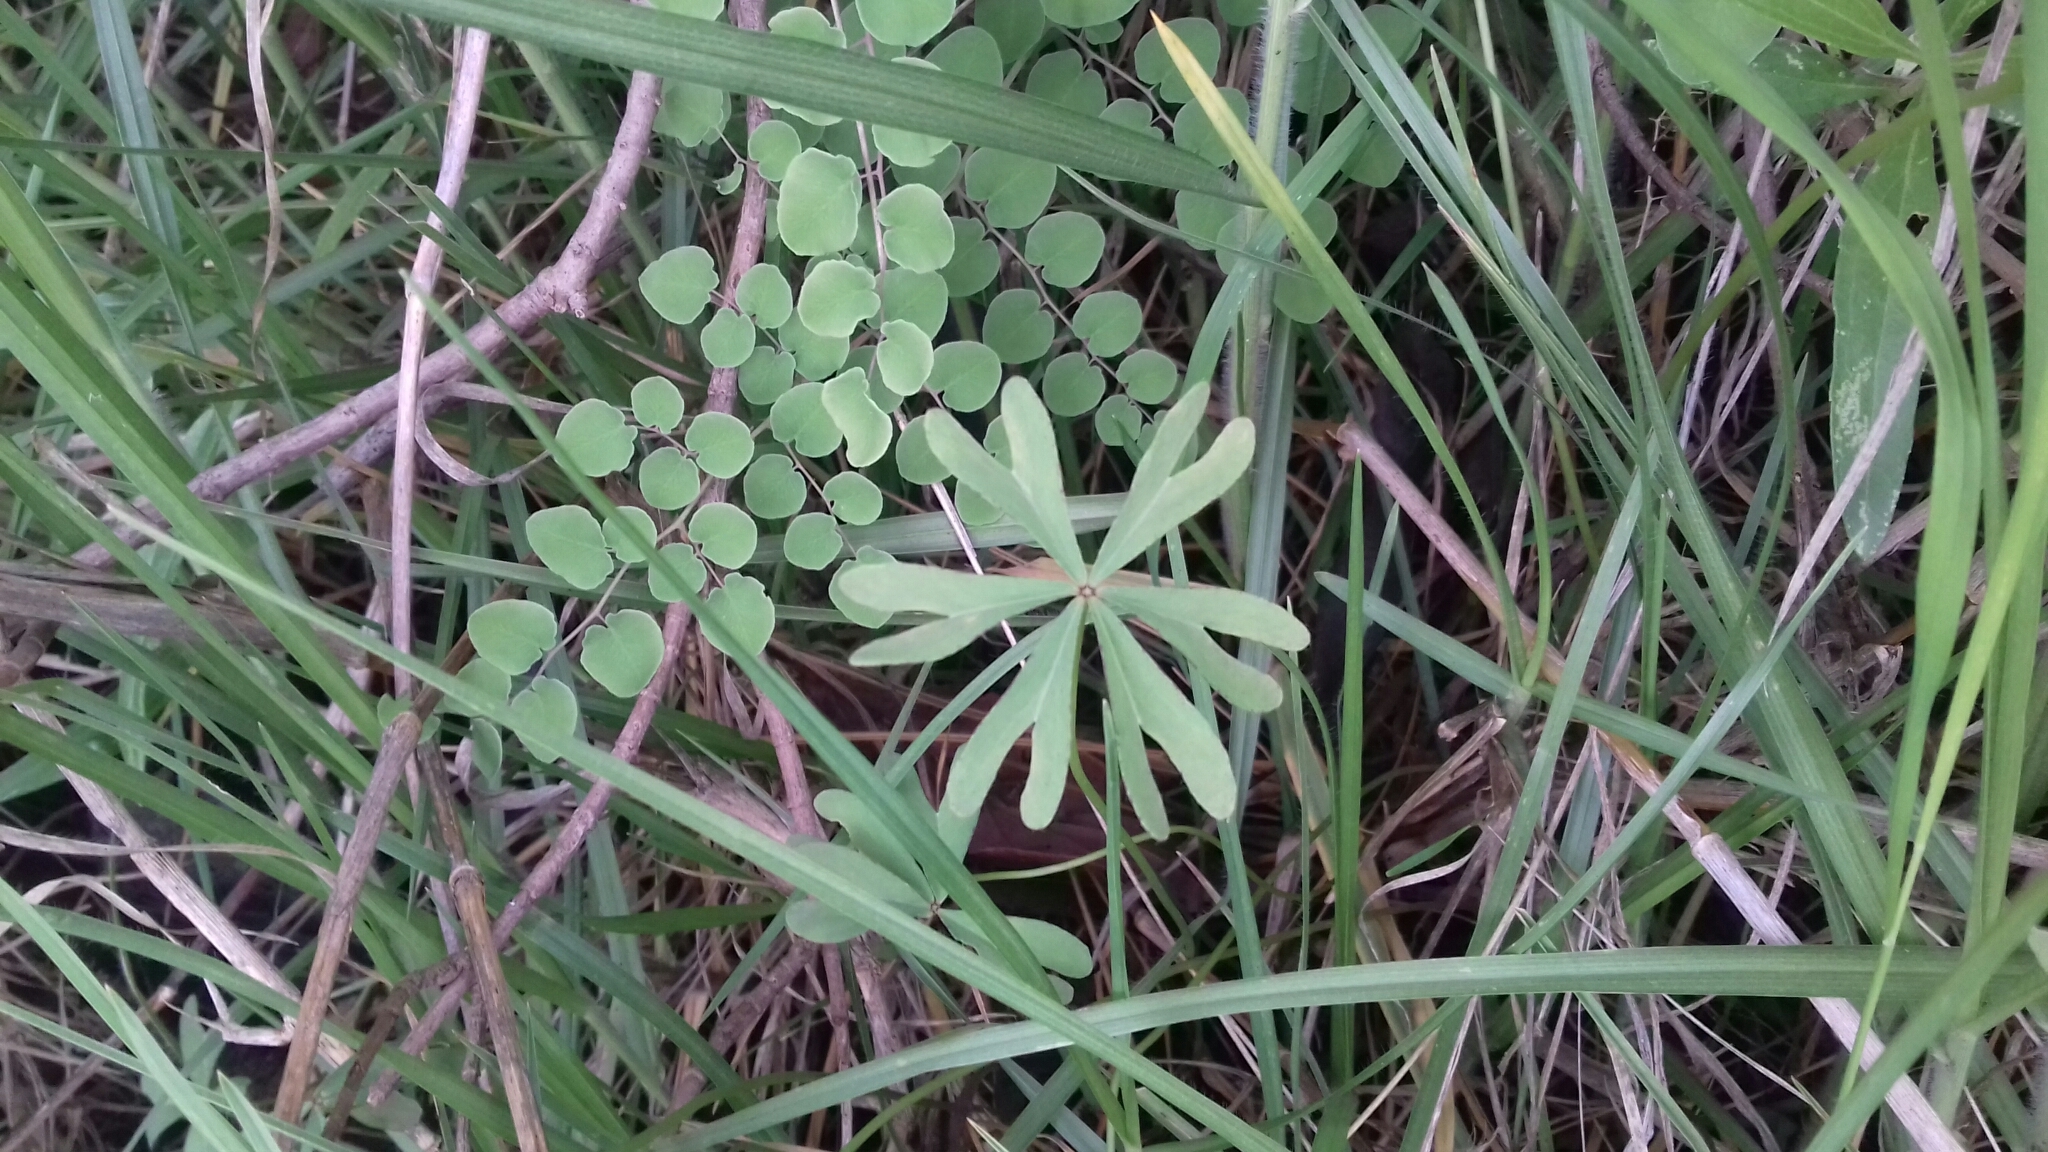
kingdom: Plantae
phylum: Tracheophyta
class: Magnoliopsida
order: Oxalidales
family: Oxalidaceae
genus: Oxalis
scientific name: Oxalis decaphylla
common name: Ten-leaved pink-sorrel
